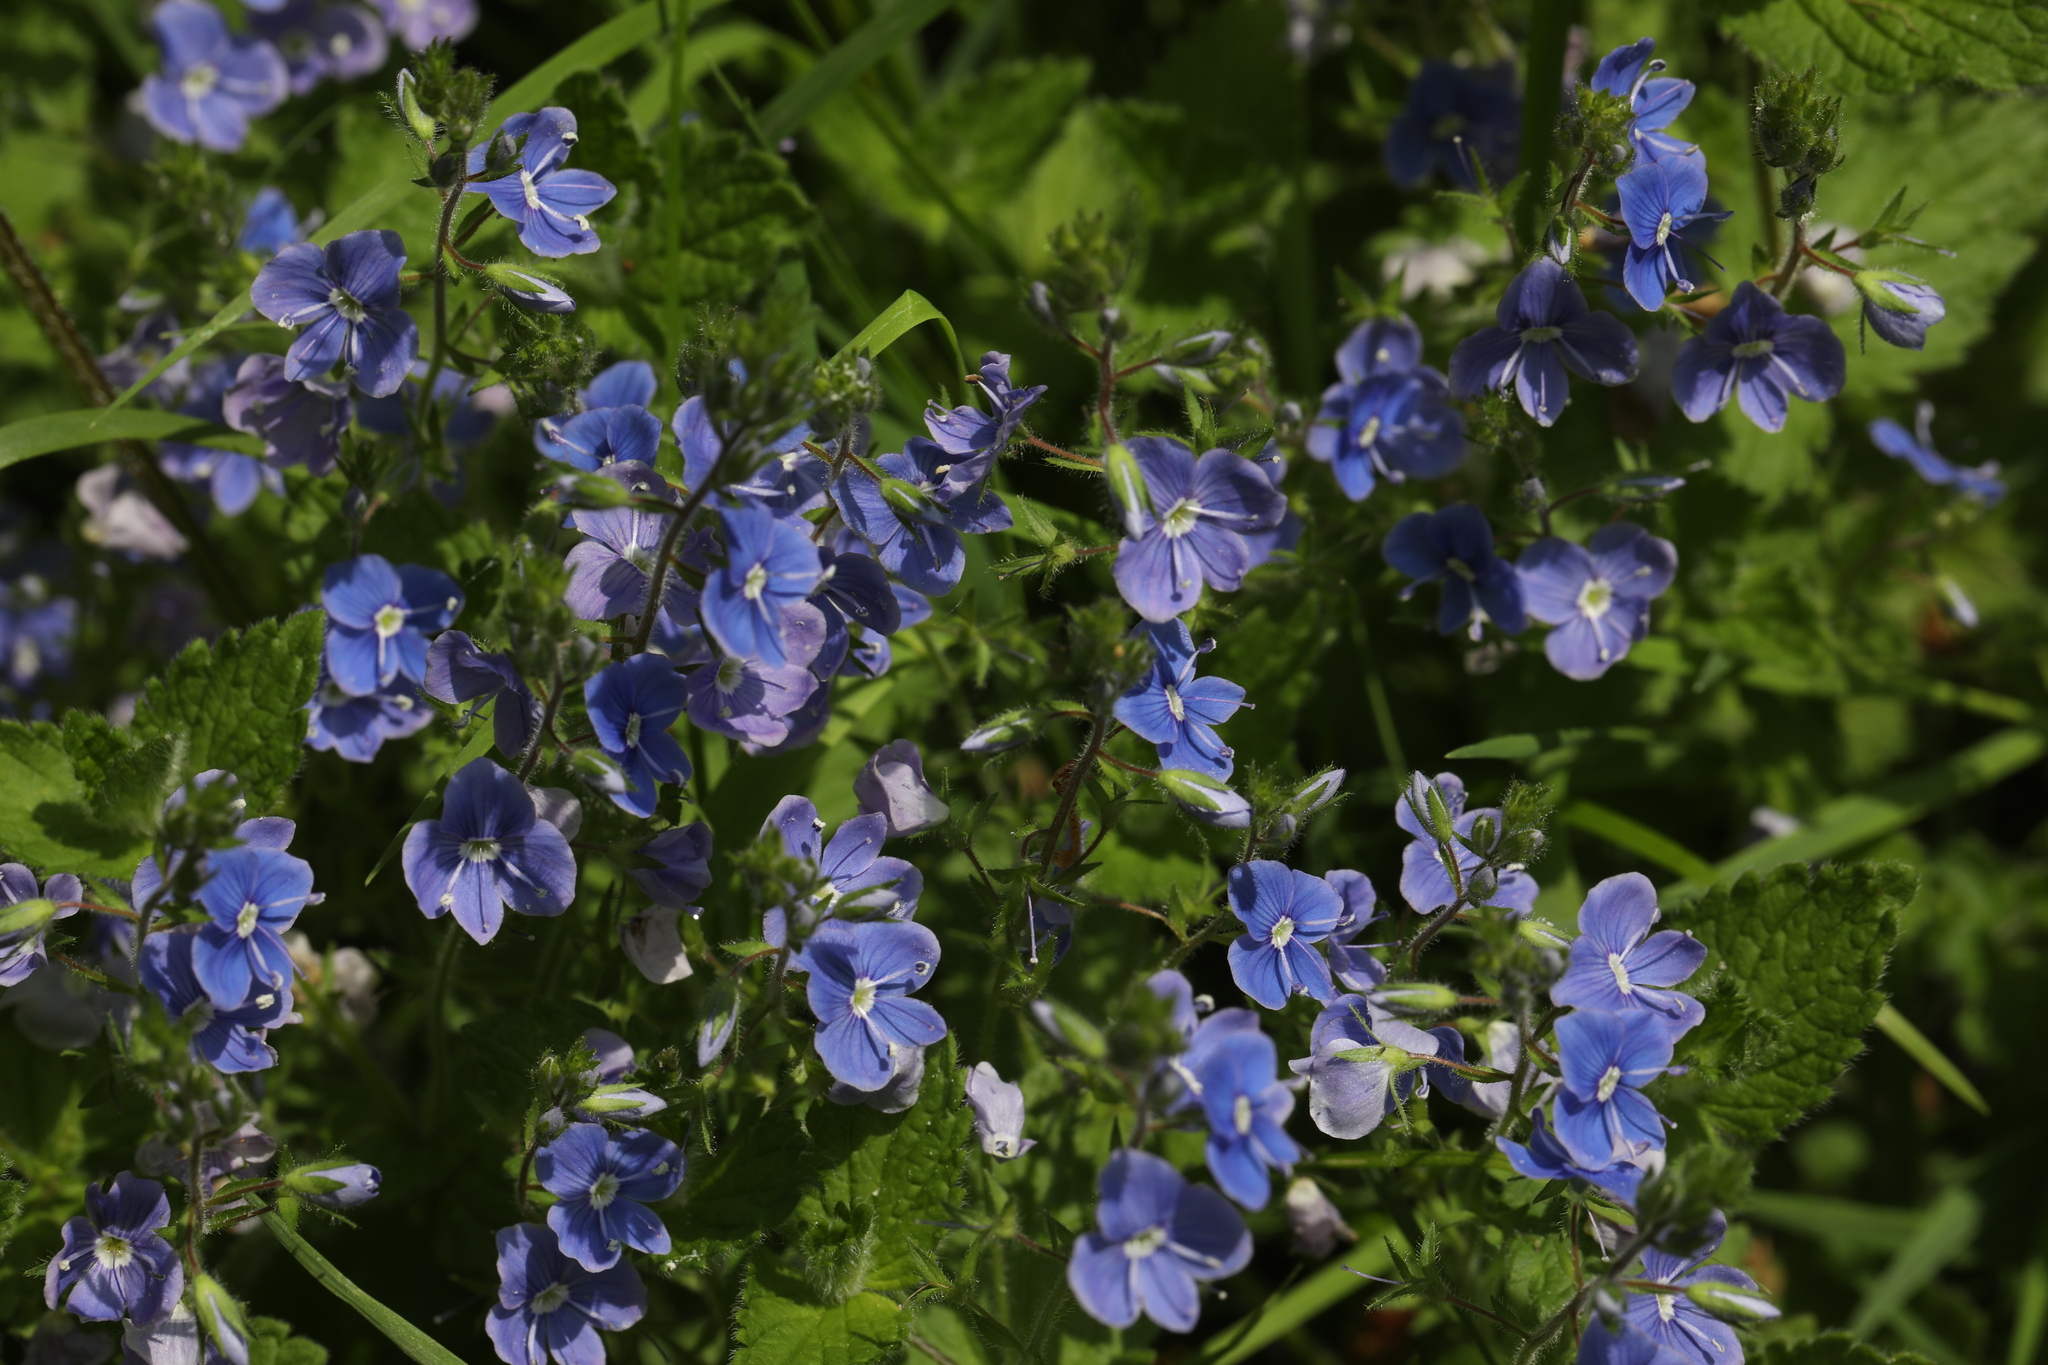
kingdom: Plantae
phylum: Tracheophyta
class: Magnoliopsida
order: Lamiales
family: Plantaginaceae
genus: Veronica
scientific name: Veronica chamaedrys
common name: Germander speedwell
